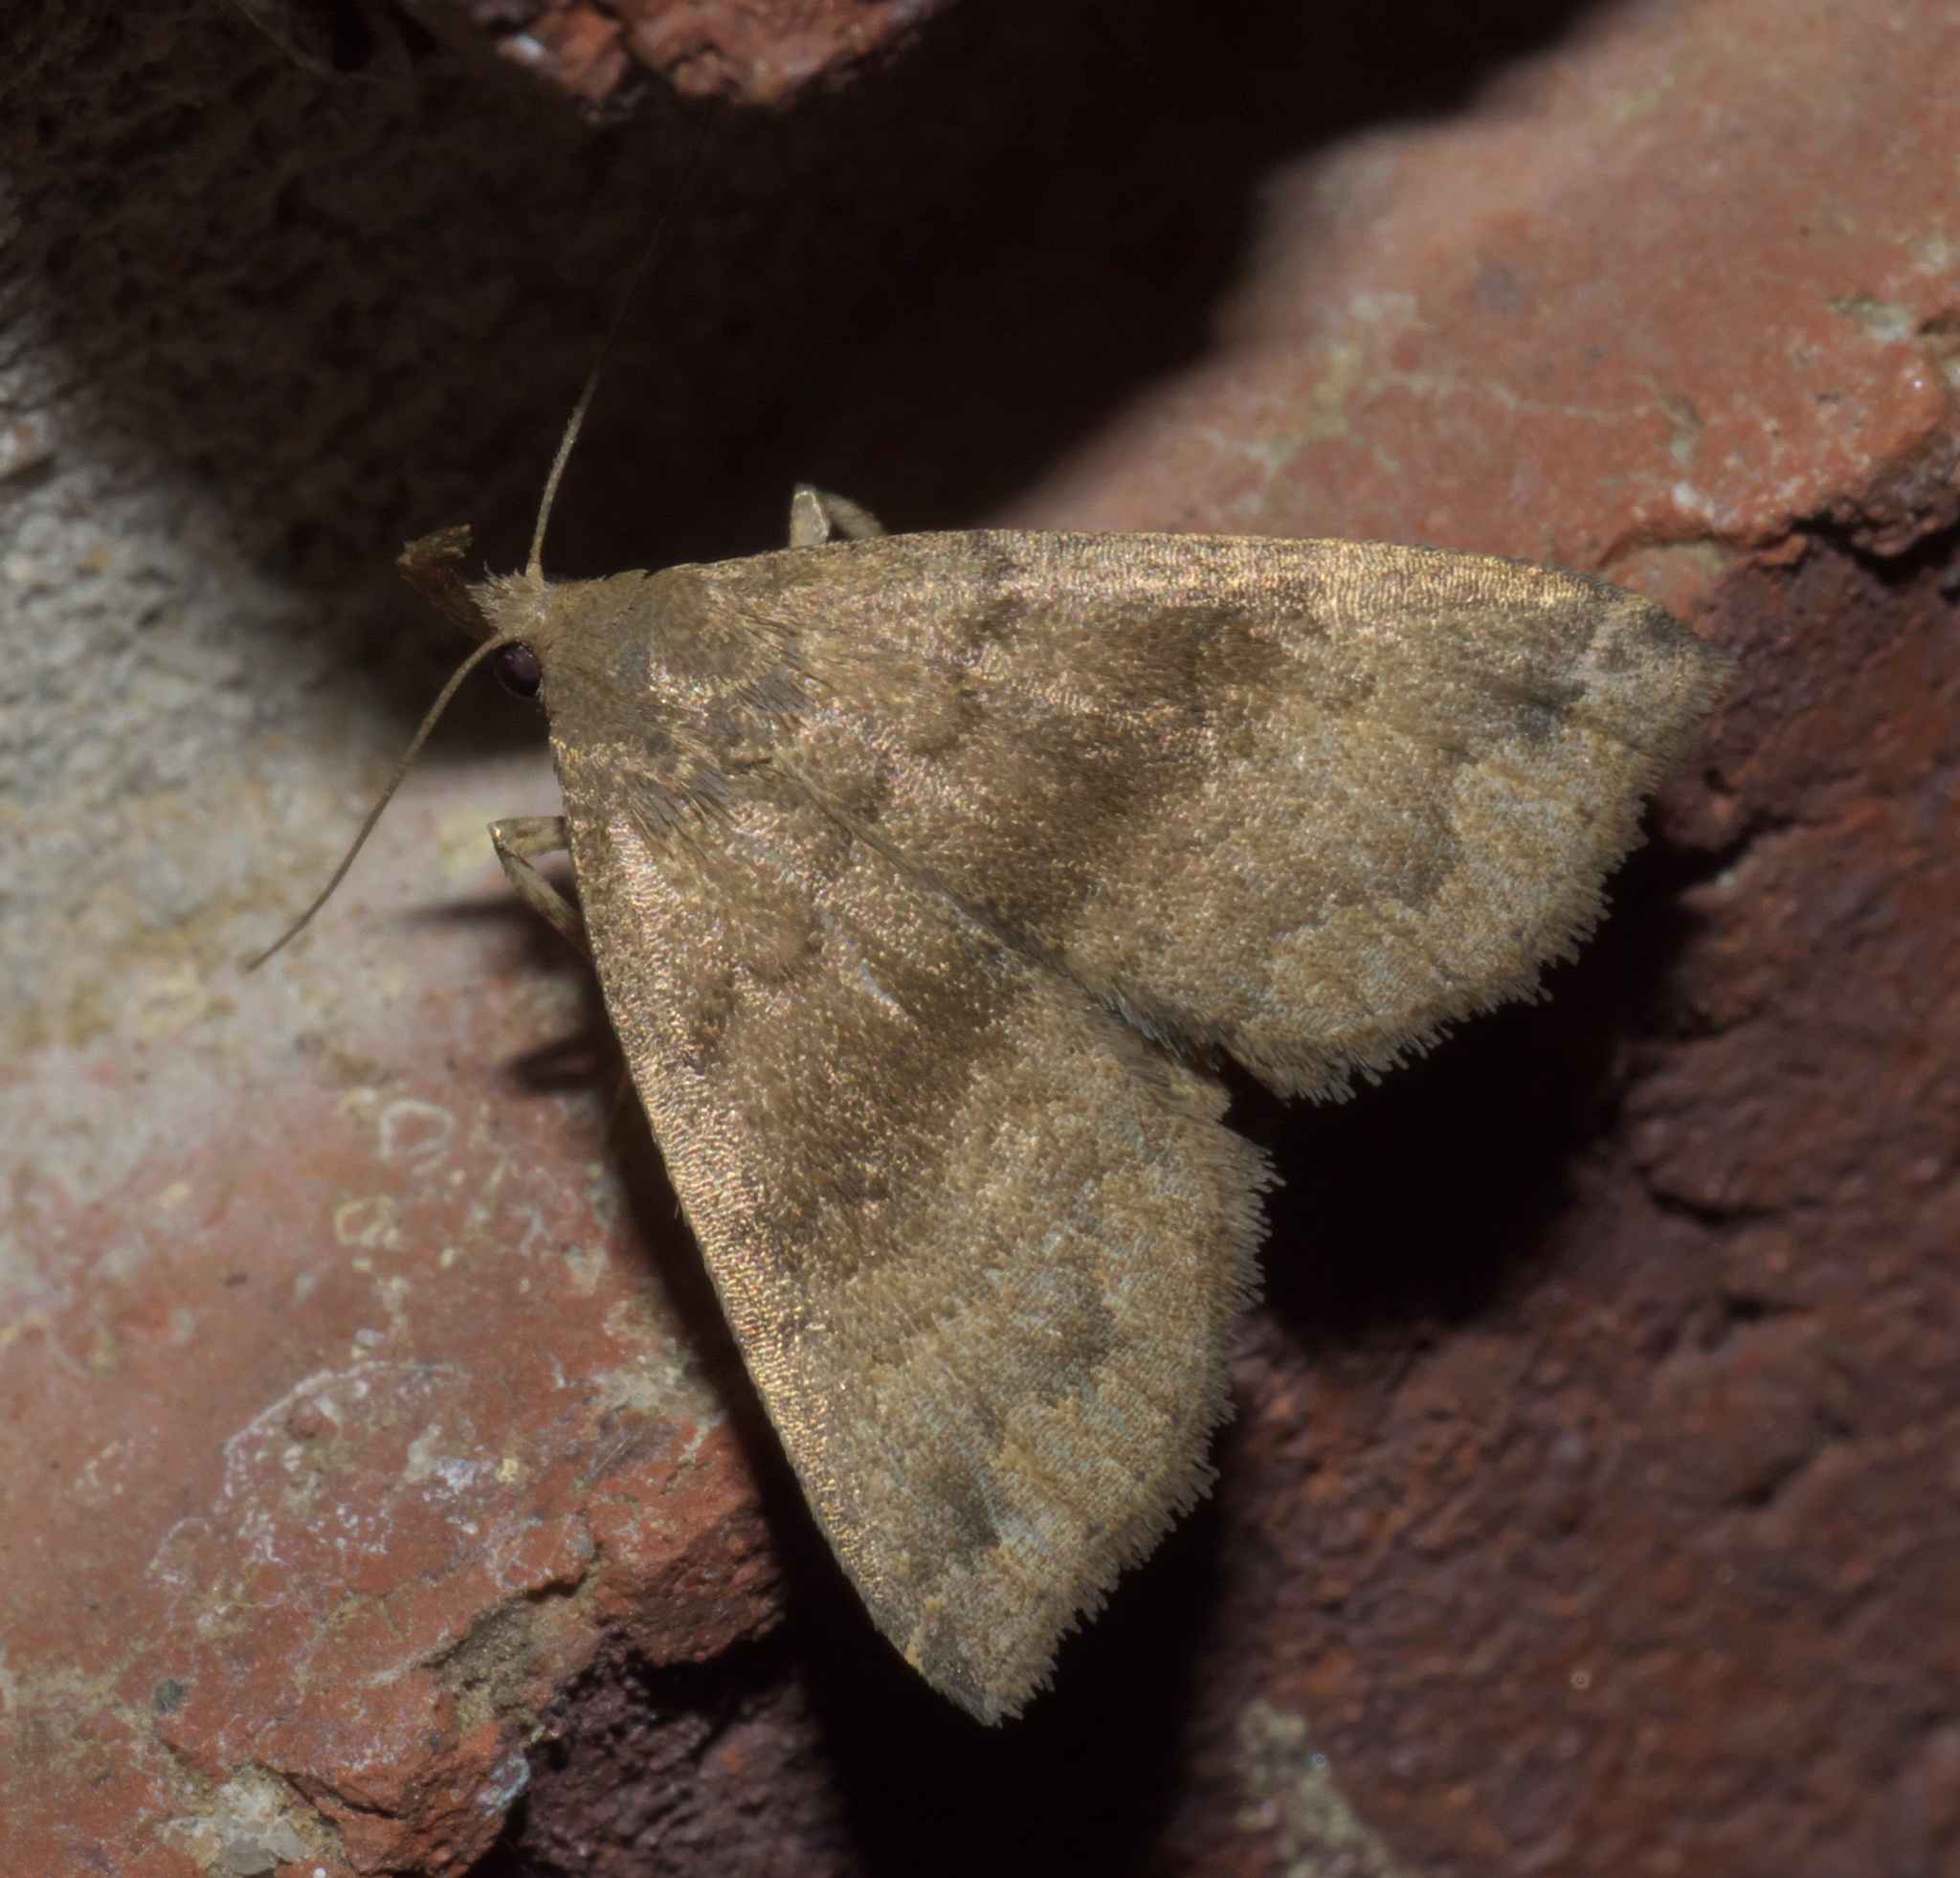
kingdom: Animalia
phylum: Arthropoda
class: Insecta
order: Lepidoptera
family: Erebidae
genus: Phalaenostola
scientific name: Phalaenostola eumelusalis
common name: Dark phalaenostola moth
